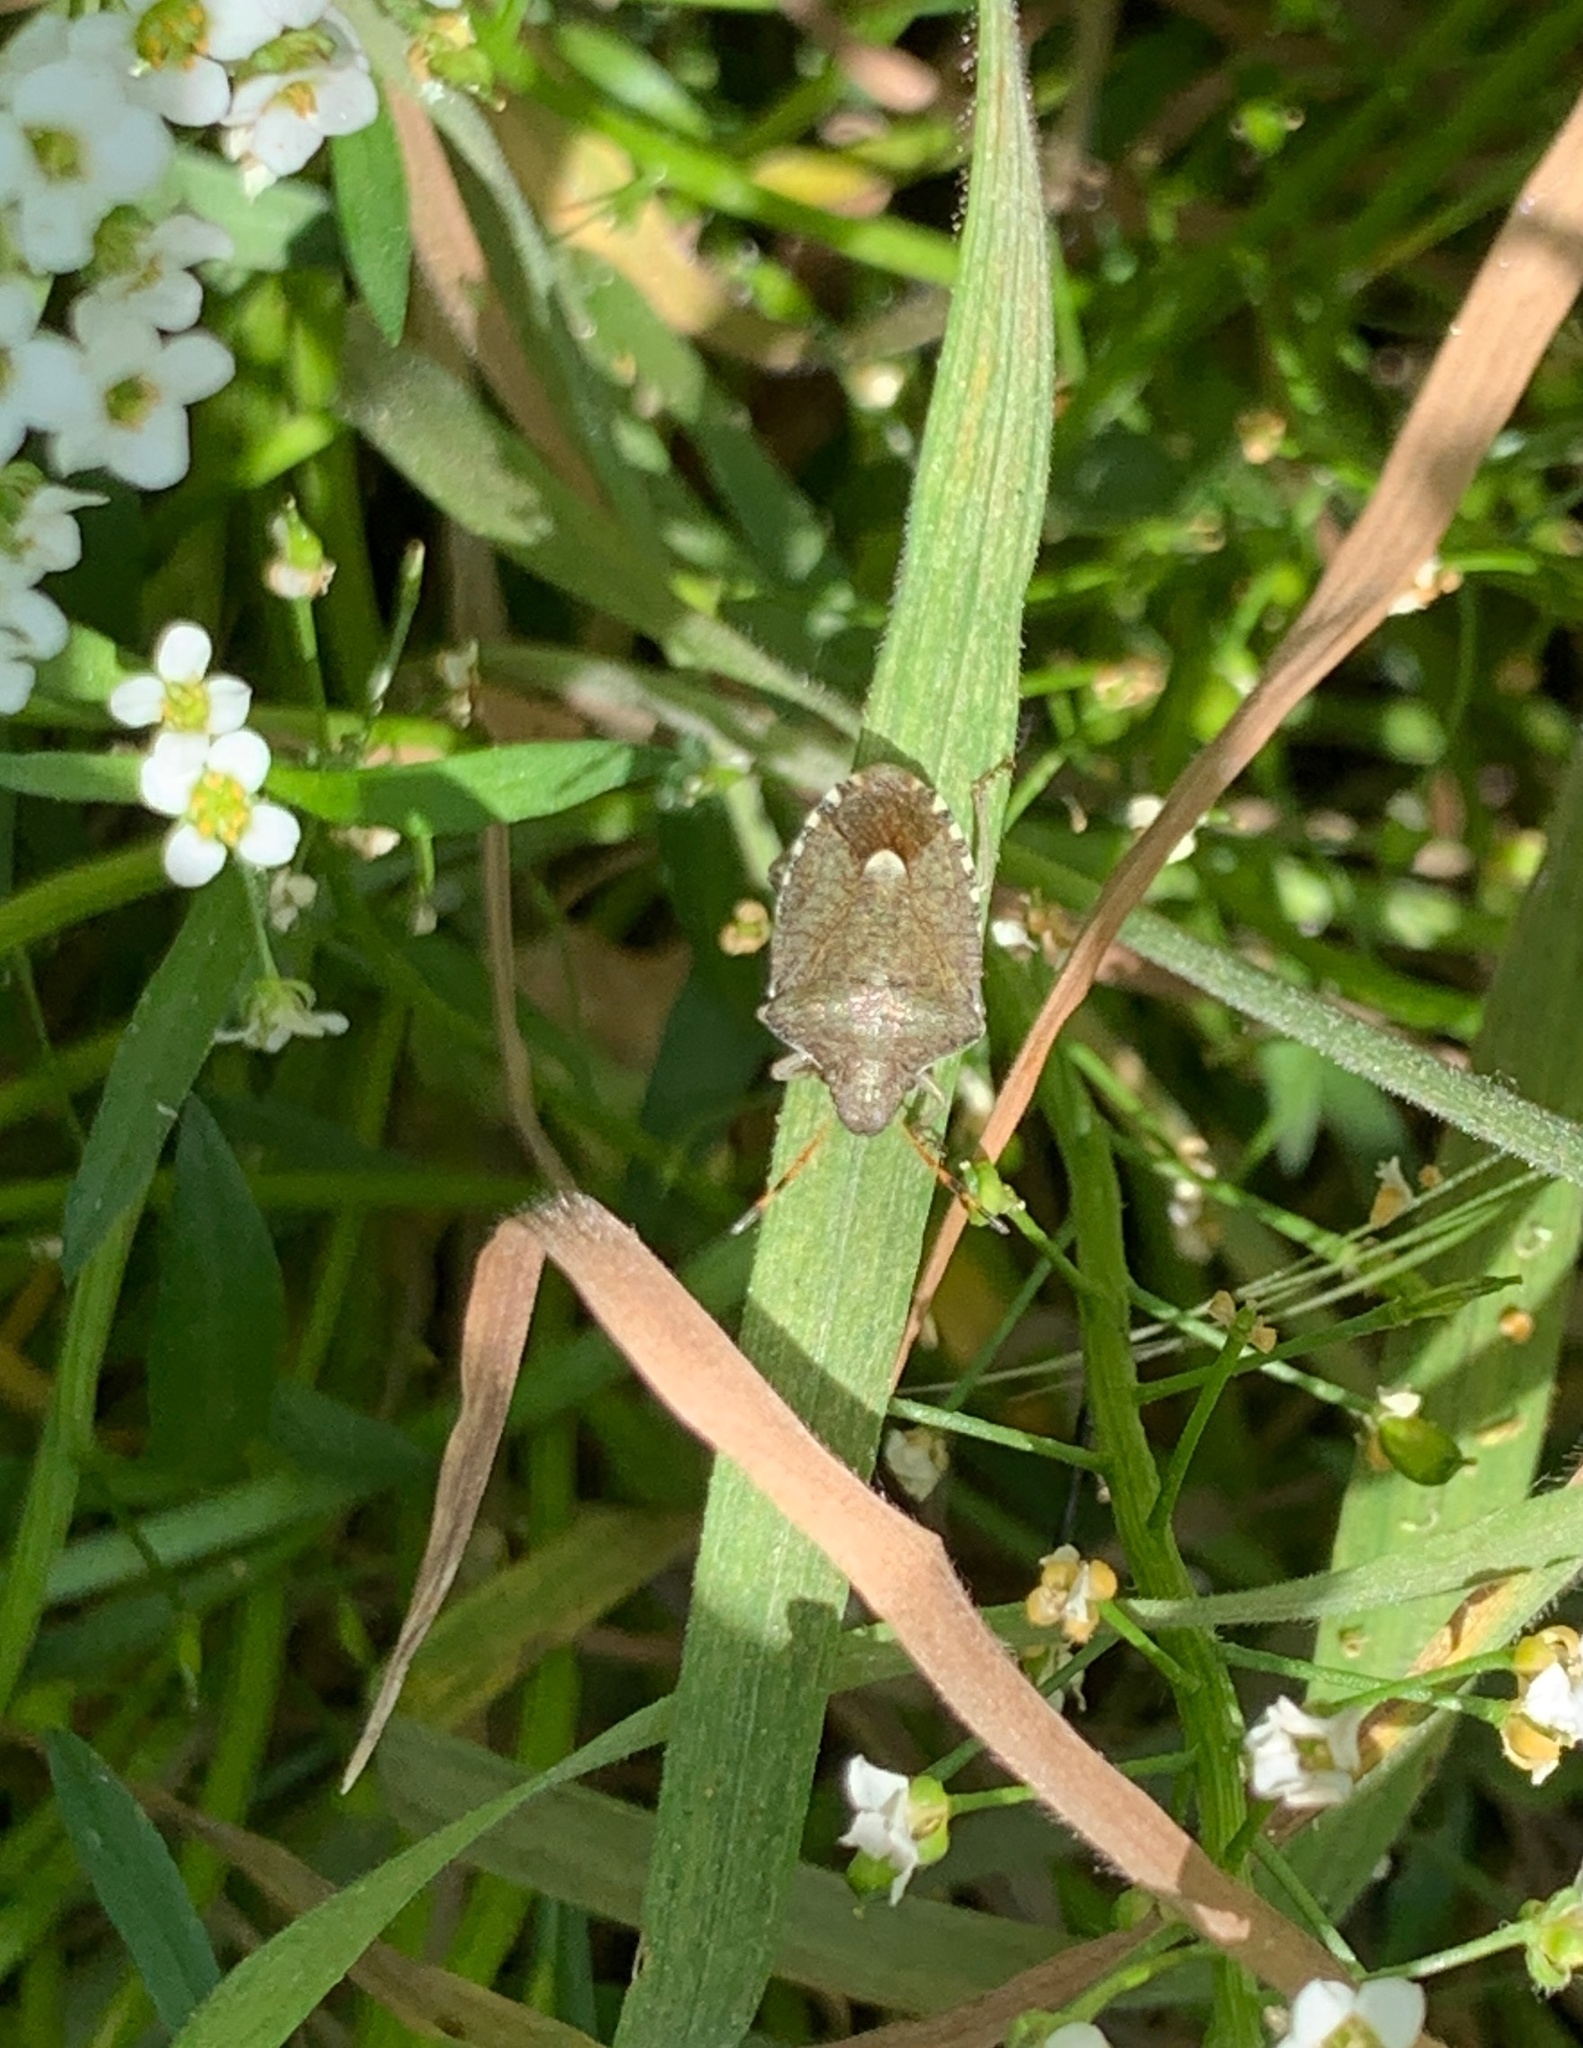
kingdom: Animalia
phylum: Arthropoda
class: Insecta
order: Hemiptera
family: Pentatomidae
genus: Holcostethus
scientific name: Holcostethus strictus
